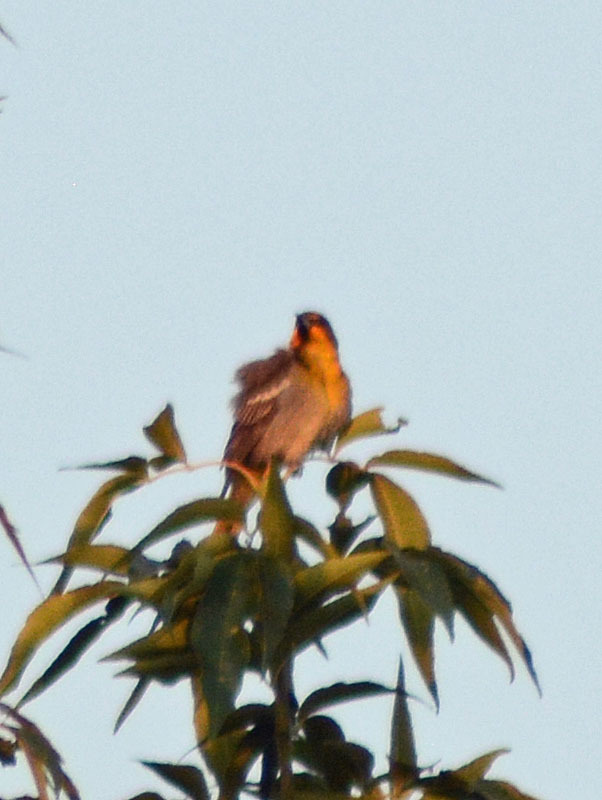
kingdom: Animalia
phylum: Chordata
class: Aves
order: Passeriformes
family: Icteridae
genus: Icterus
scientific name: Icterus abeillei
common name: Black-backed oriole
